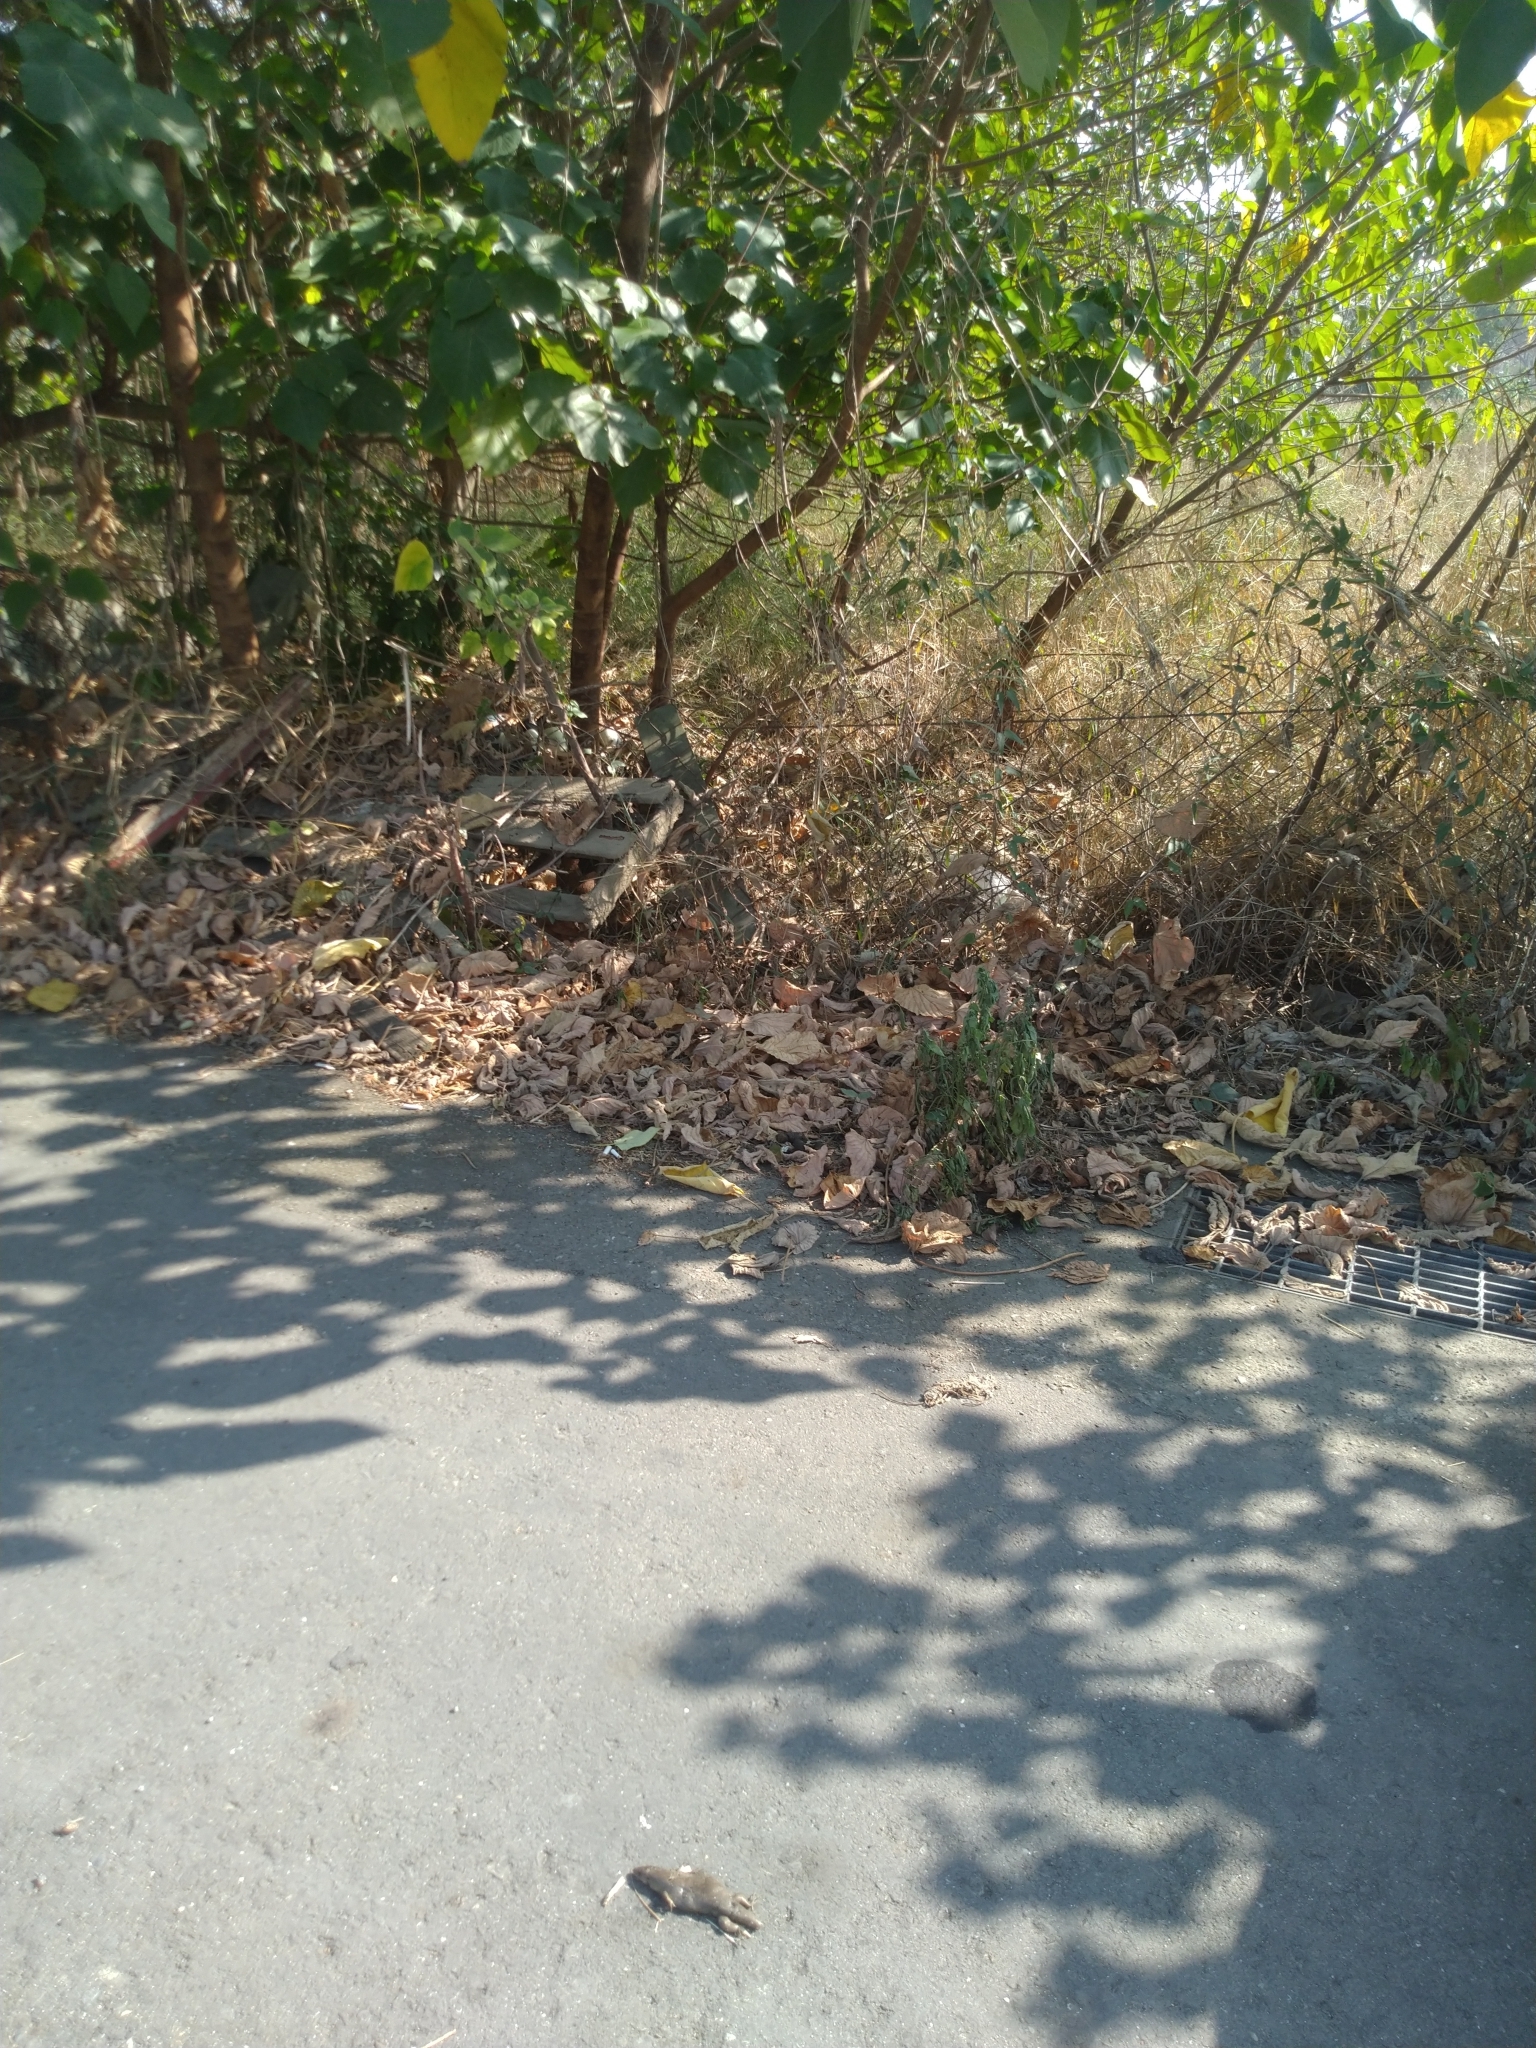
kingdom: Animalia
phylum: Chordata
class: Squamata
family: Scincidae
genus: Eutropis
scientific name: Eutropis multifasciata
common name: Common mabuya
